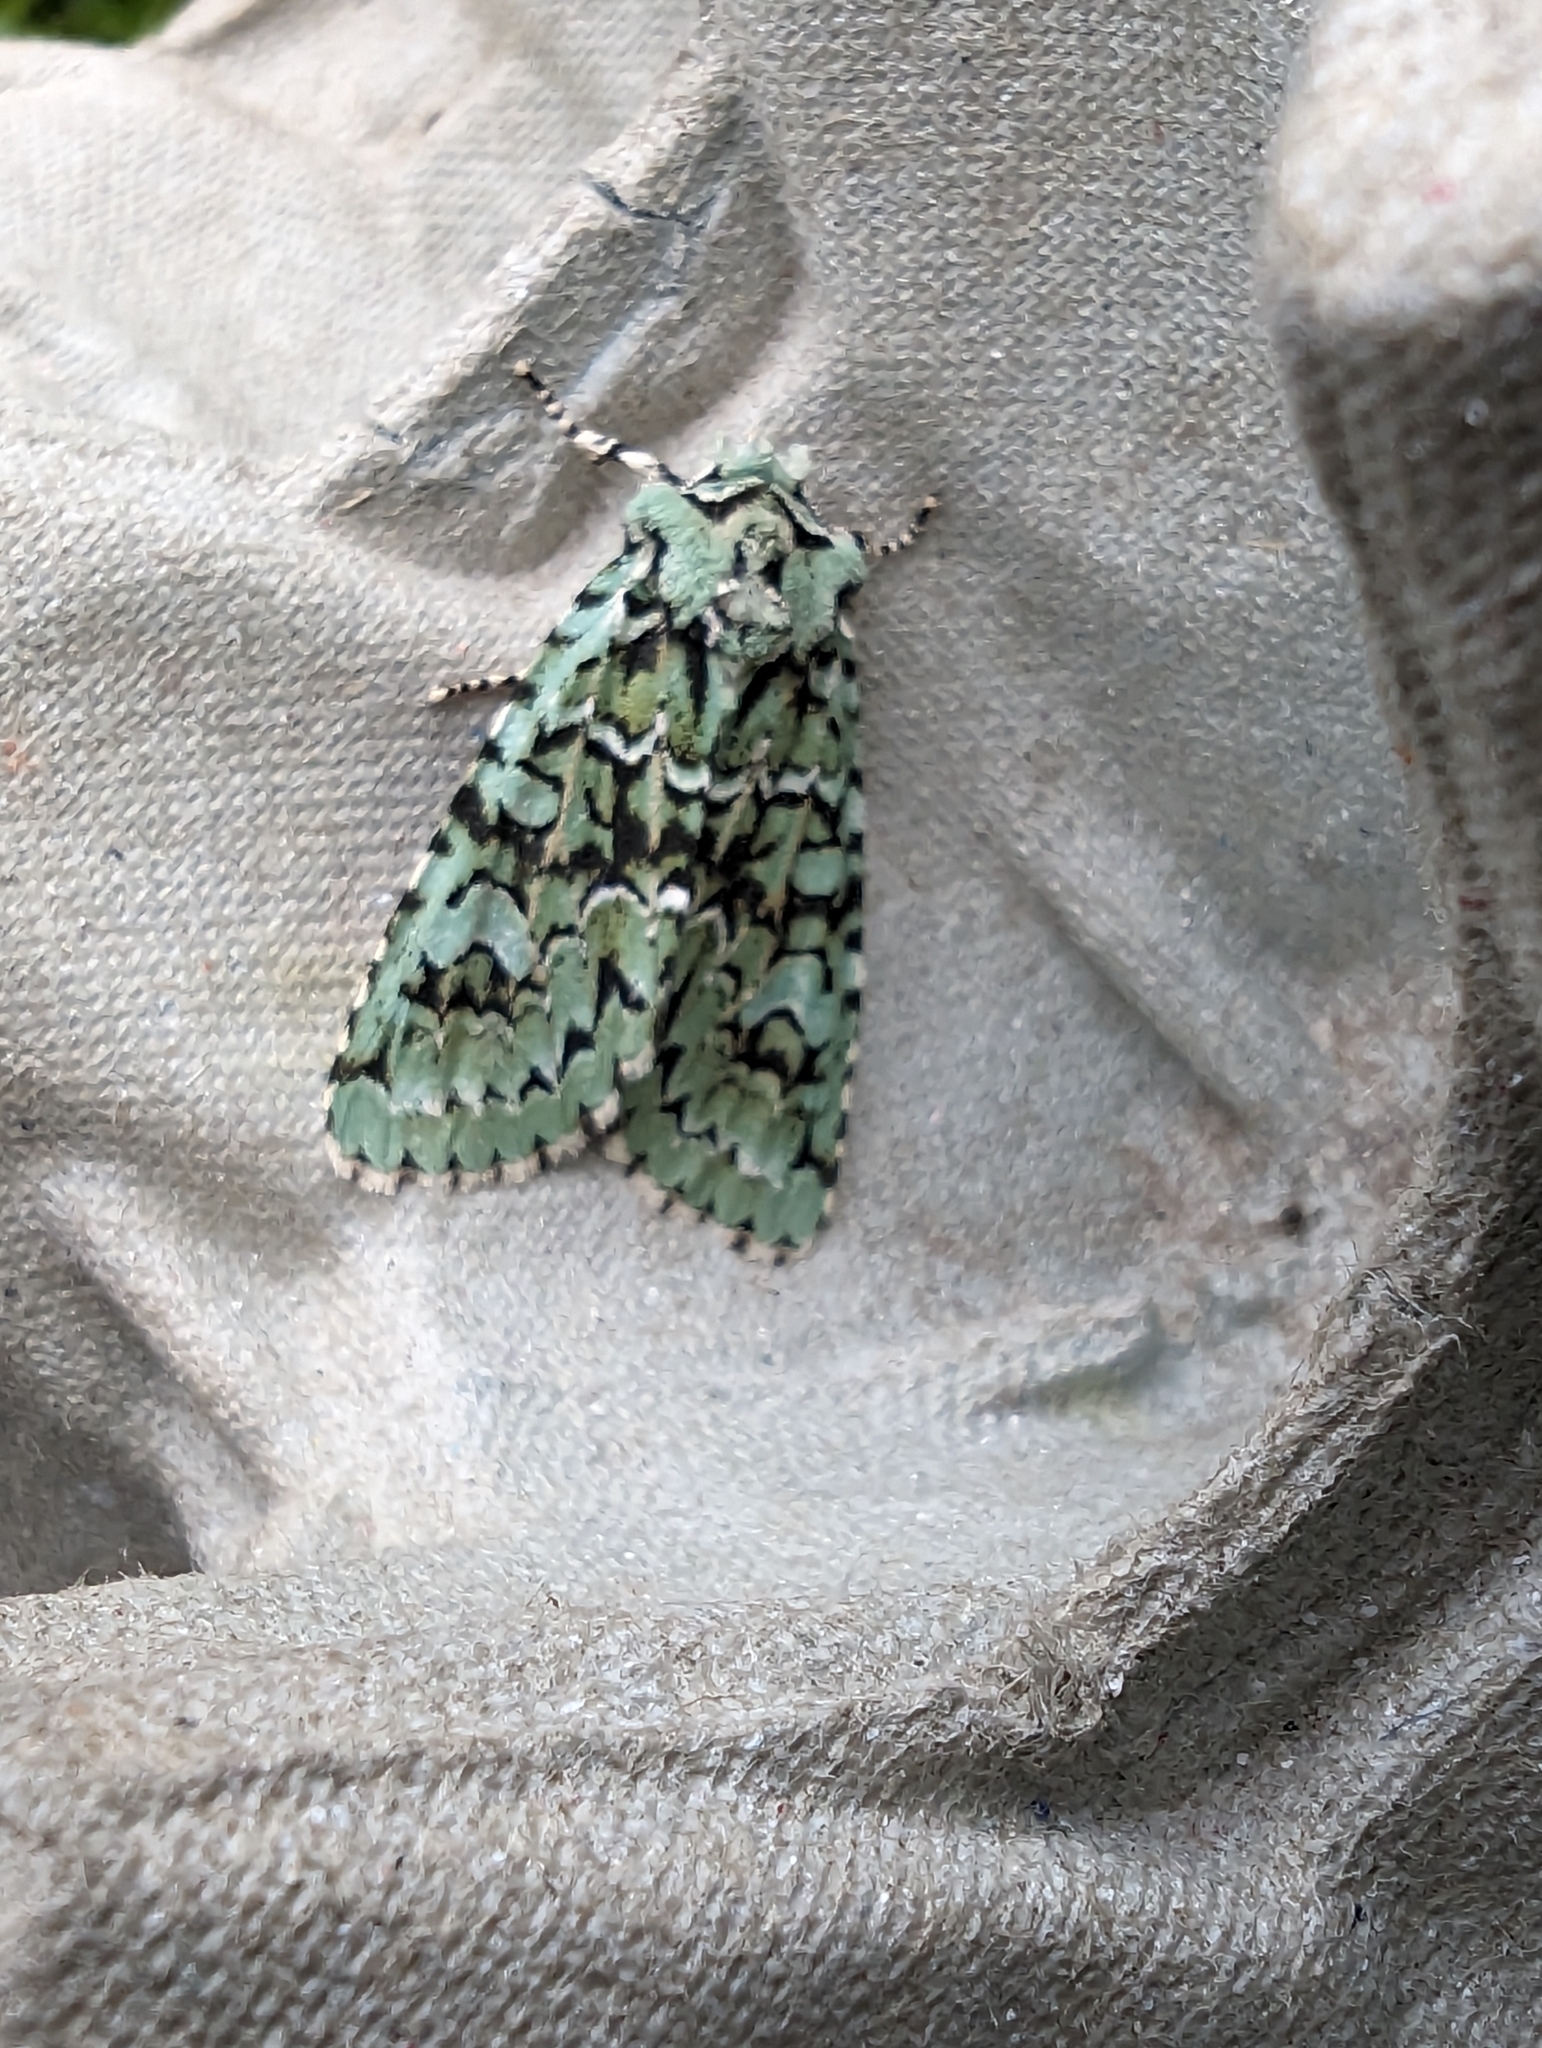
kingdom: Animalia
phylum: Arthropoda
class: Insecta
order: Lepidoptera
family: Noctuidae
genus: Griposia
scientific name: Griposia aprilina
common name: Merveille du jour
